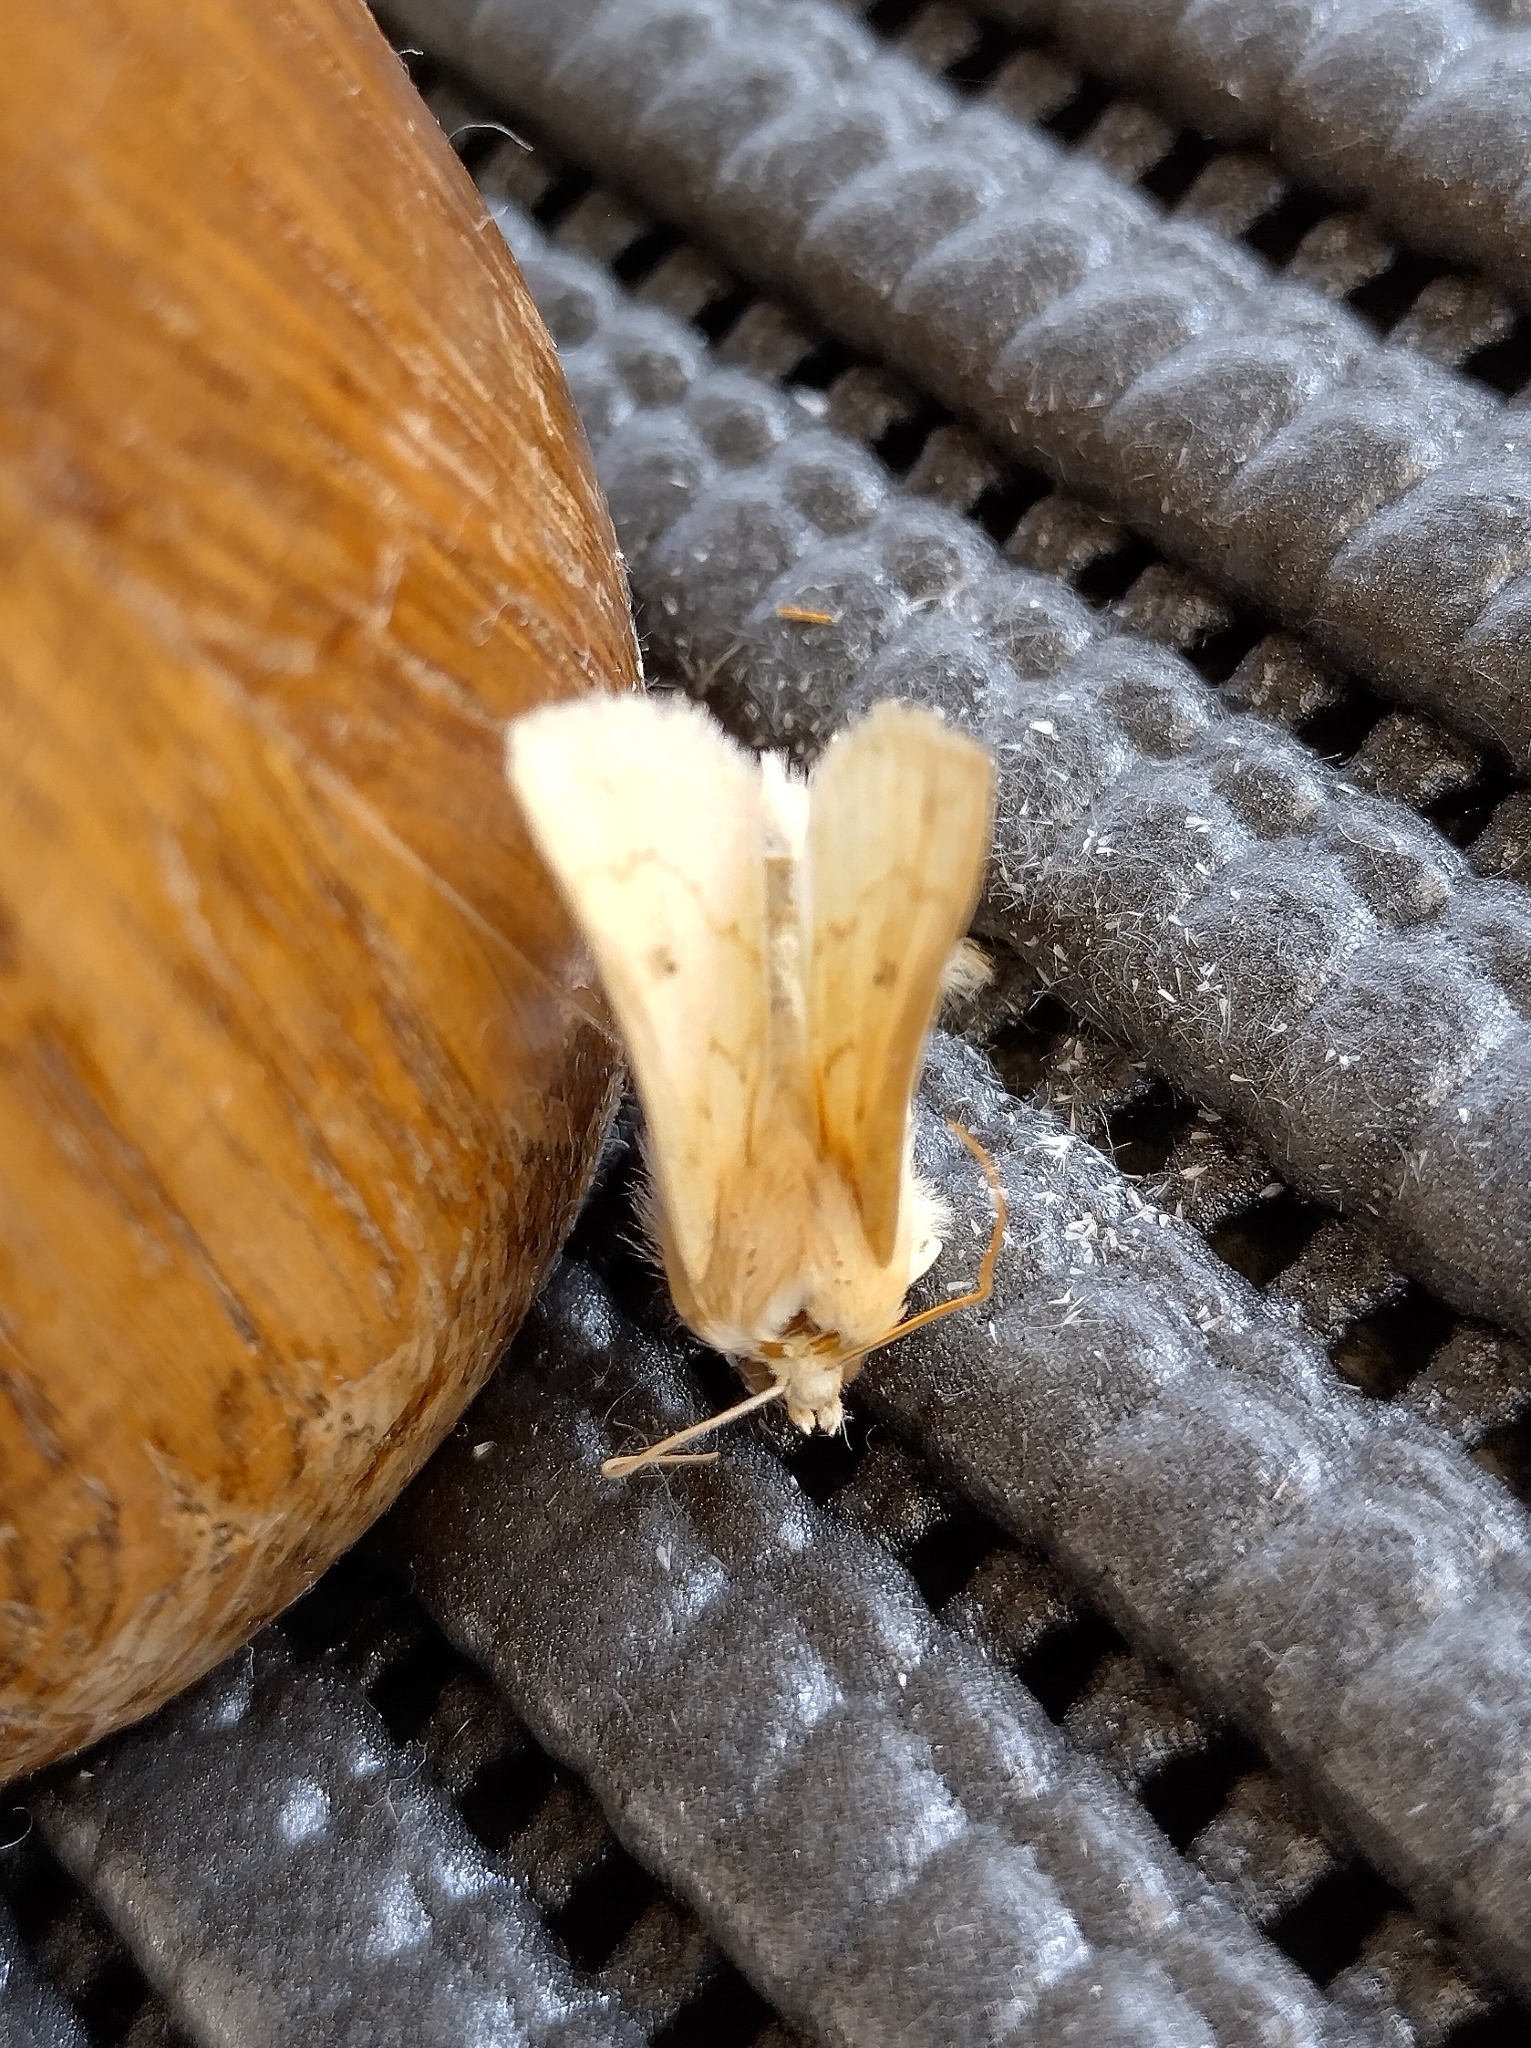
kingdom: Animalia
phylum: Arthropoda
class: Insecta
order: Lepidoptera
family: Noctuidae
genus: Mythimna
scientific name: Mythimna vitellina
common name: Delicate
